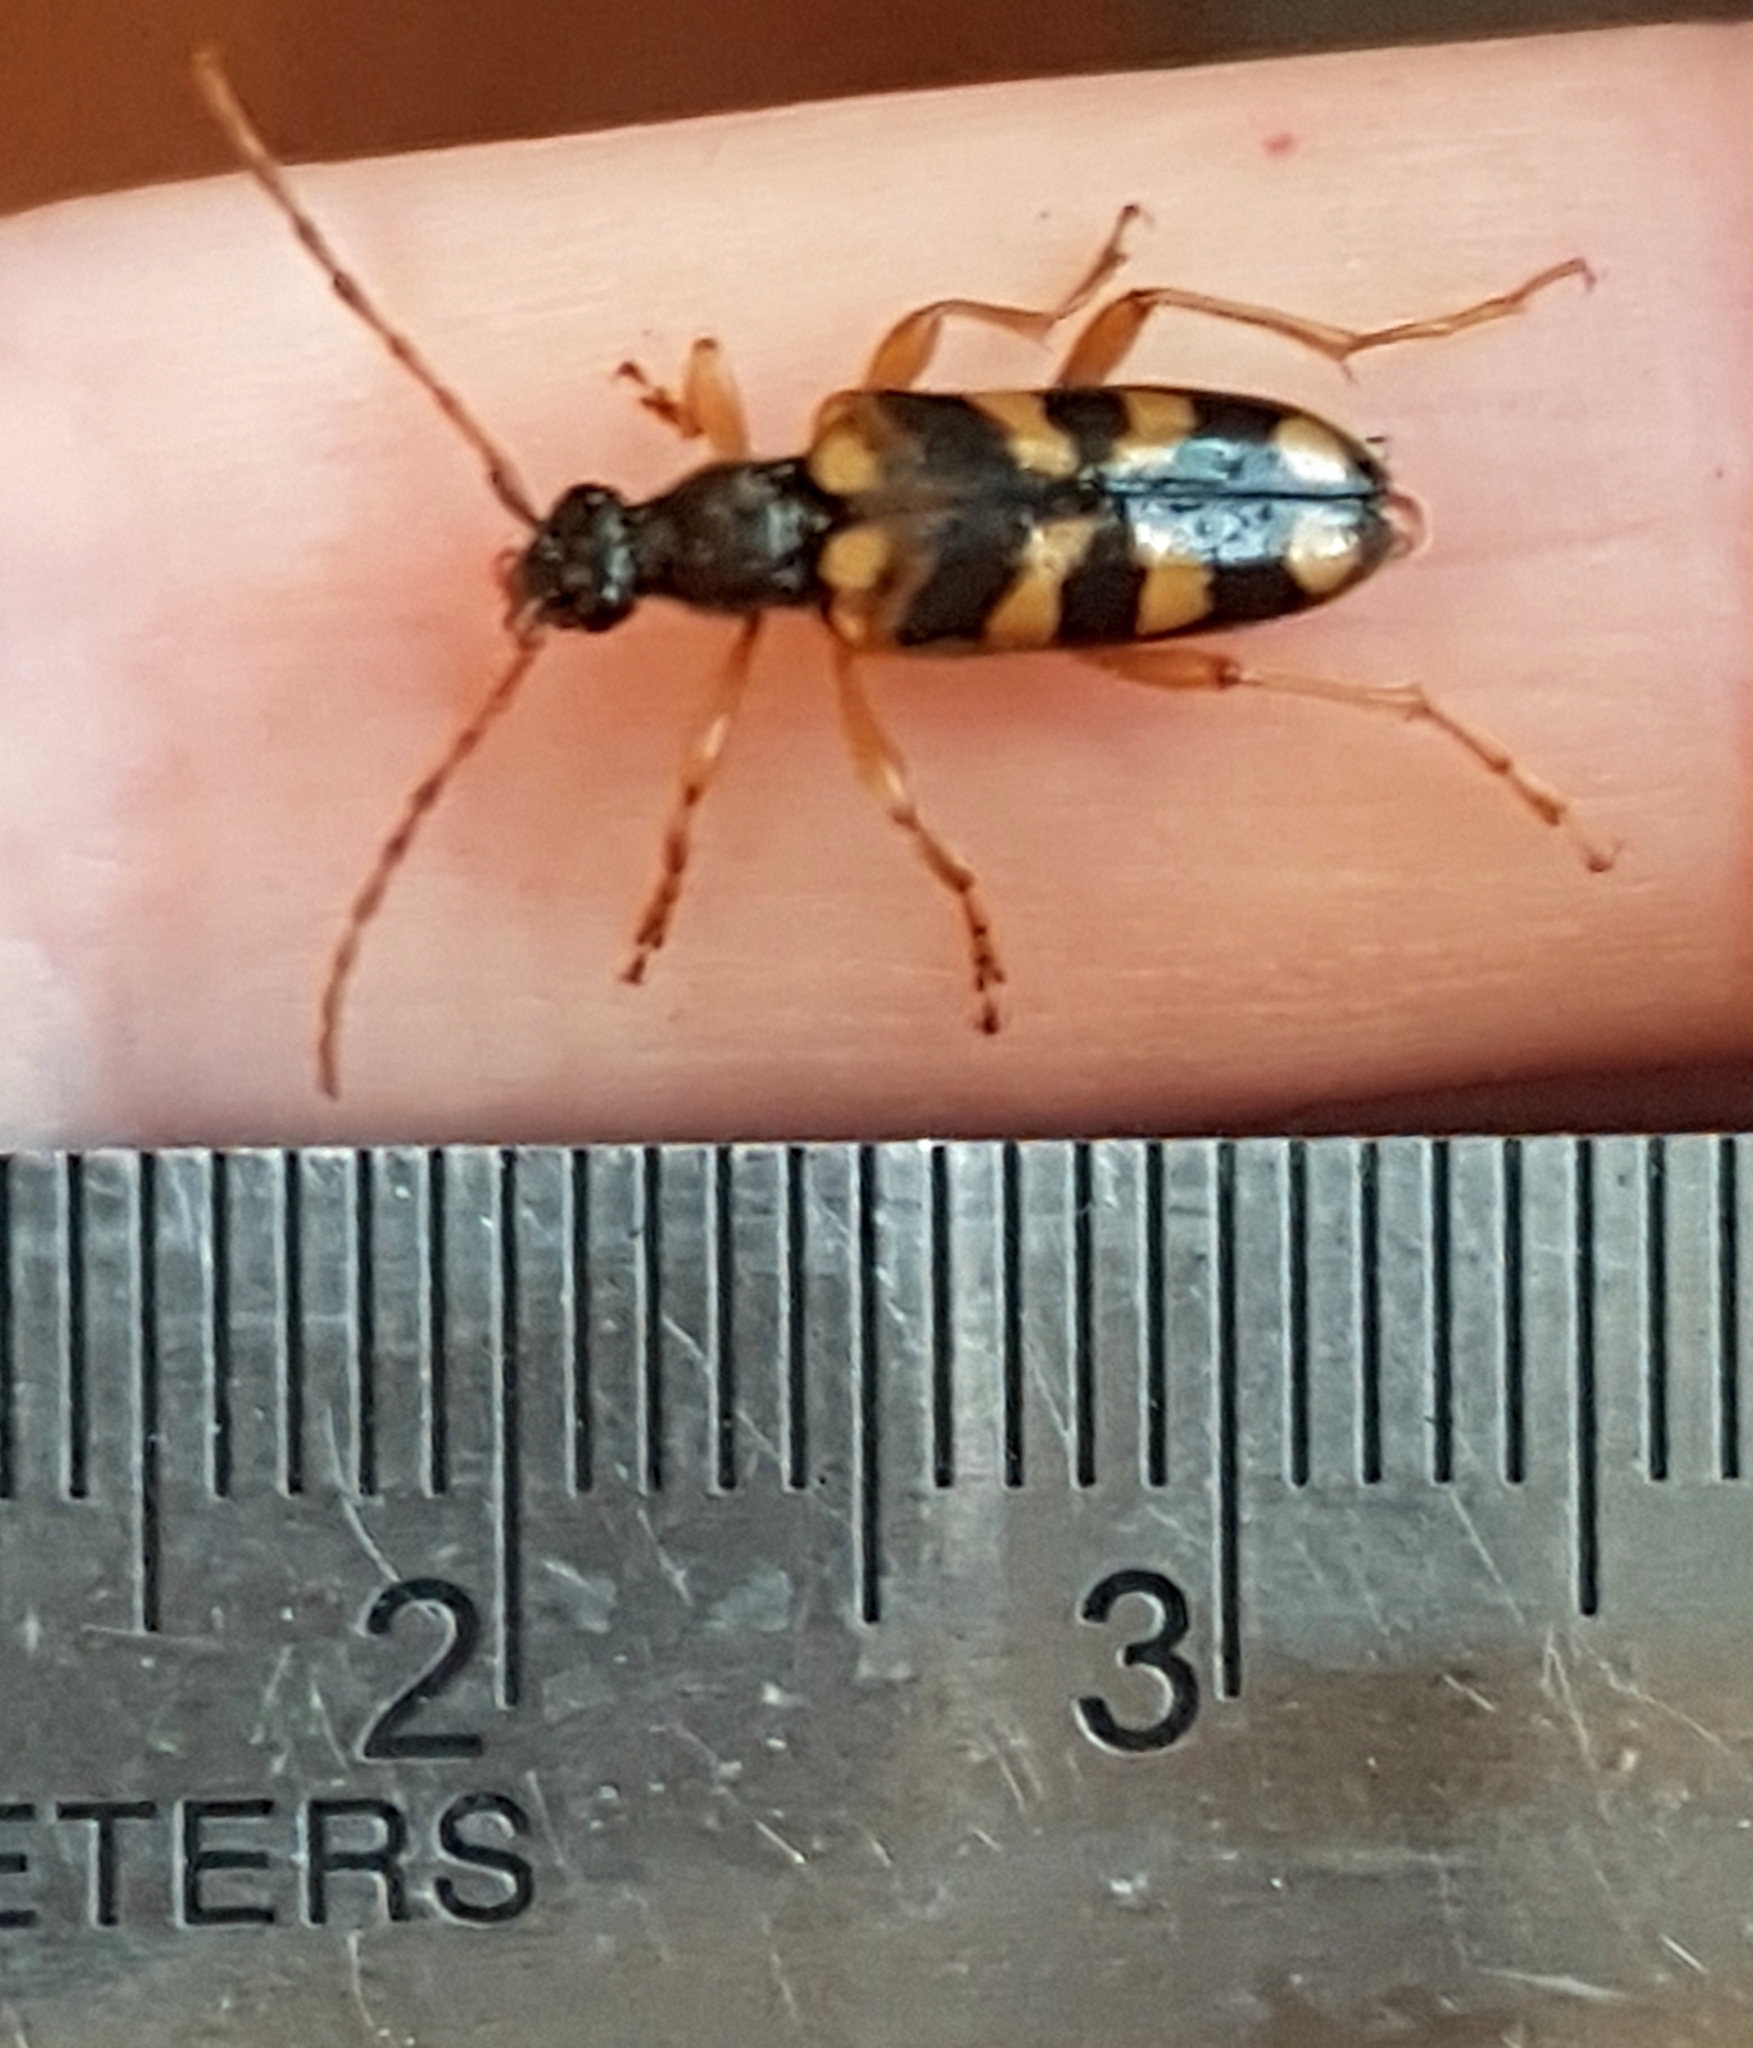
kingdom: Animalia
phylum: Arthropoda
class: Insecta
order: Coleoptera
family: Cerambycidae
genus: Xestoleptura
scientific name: Xestoleptura crassipes
